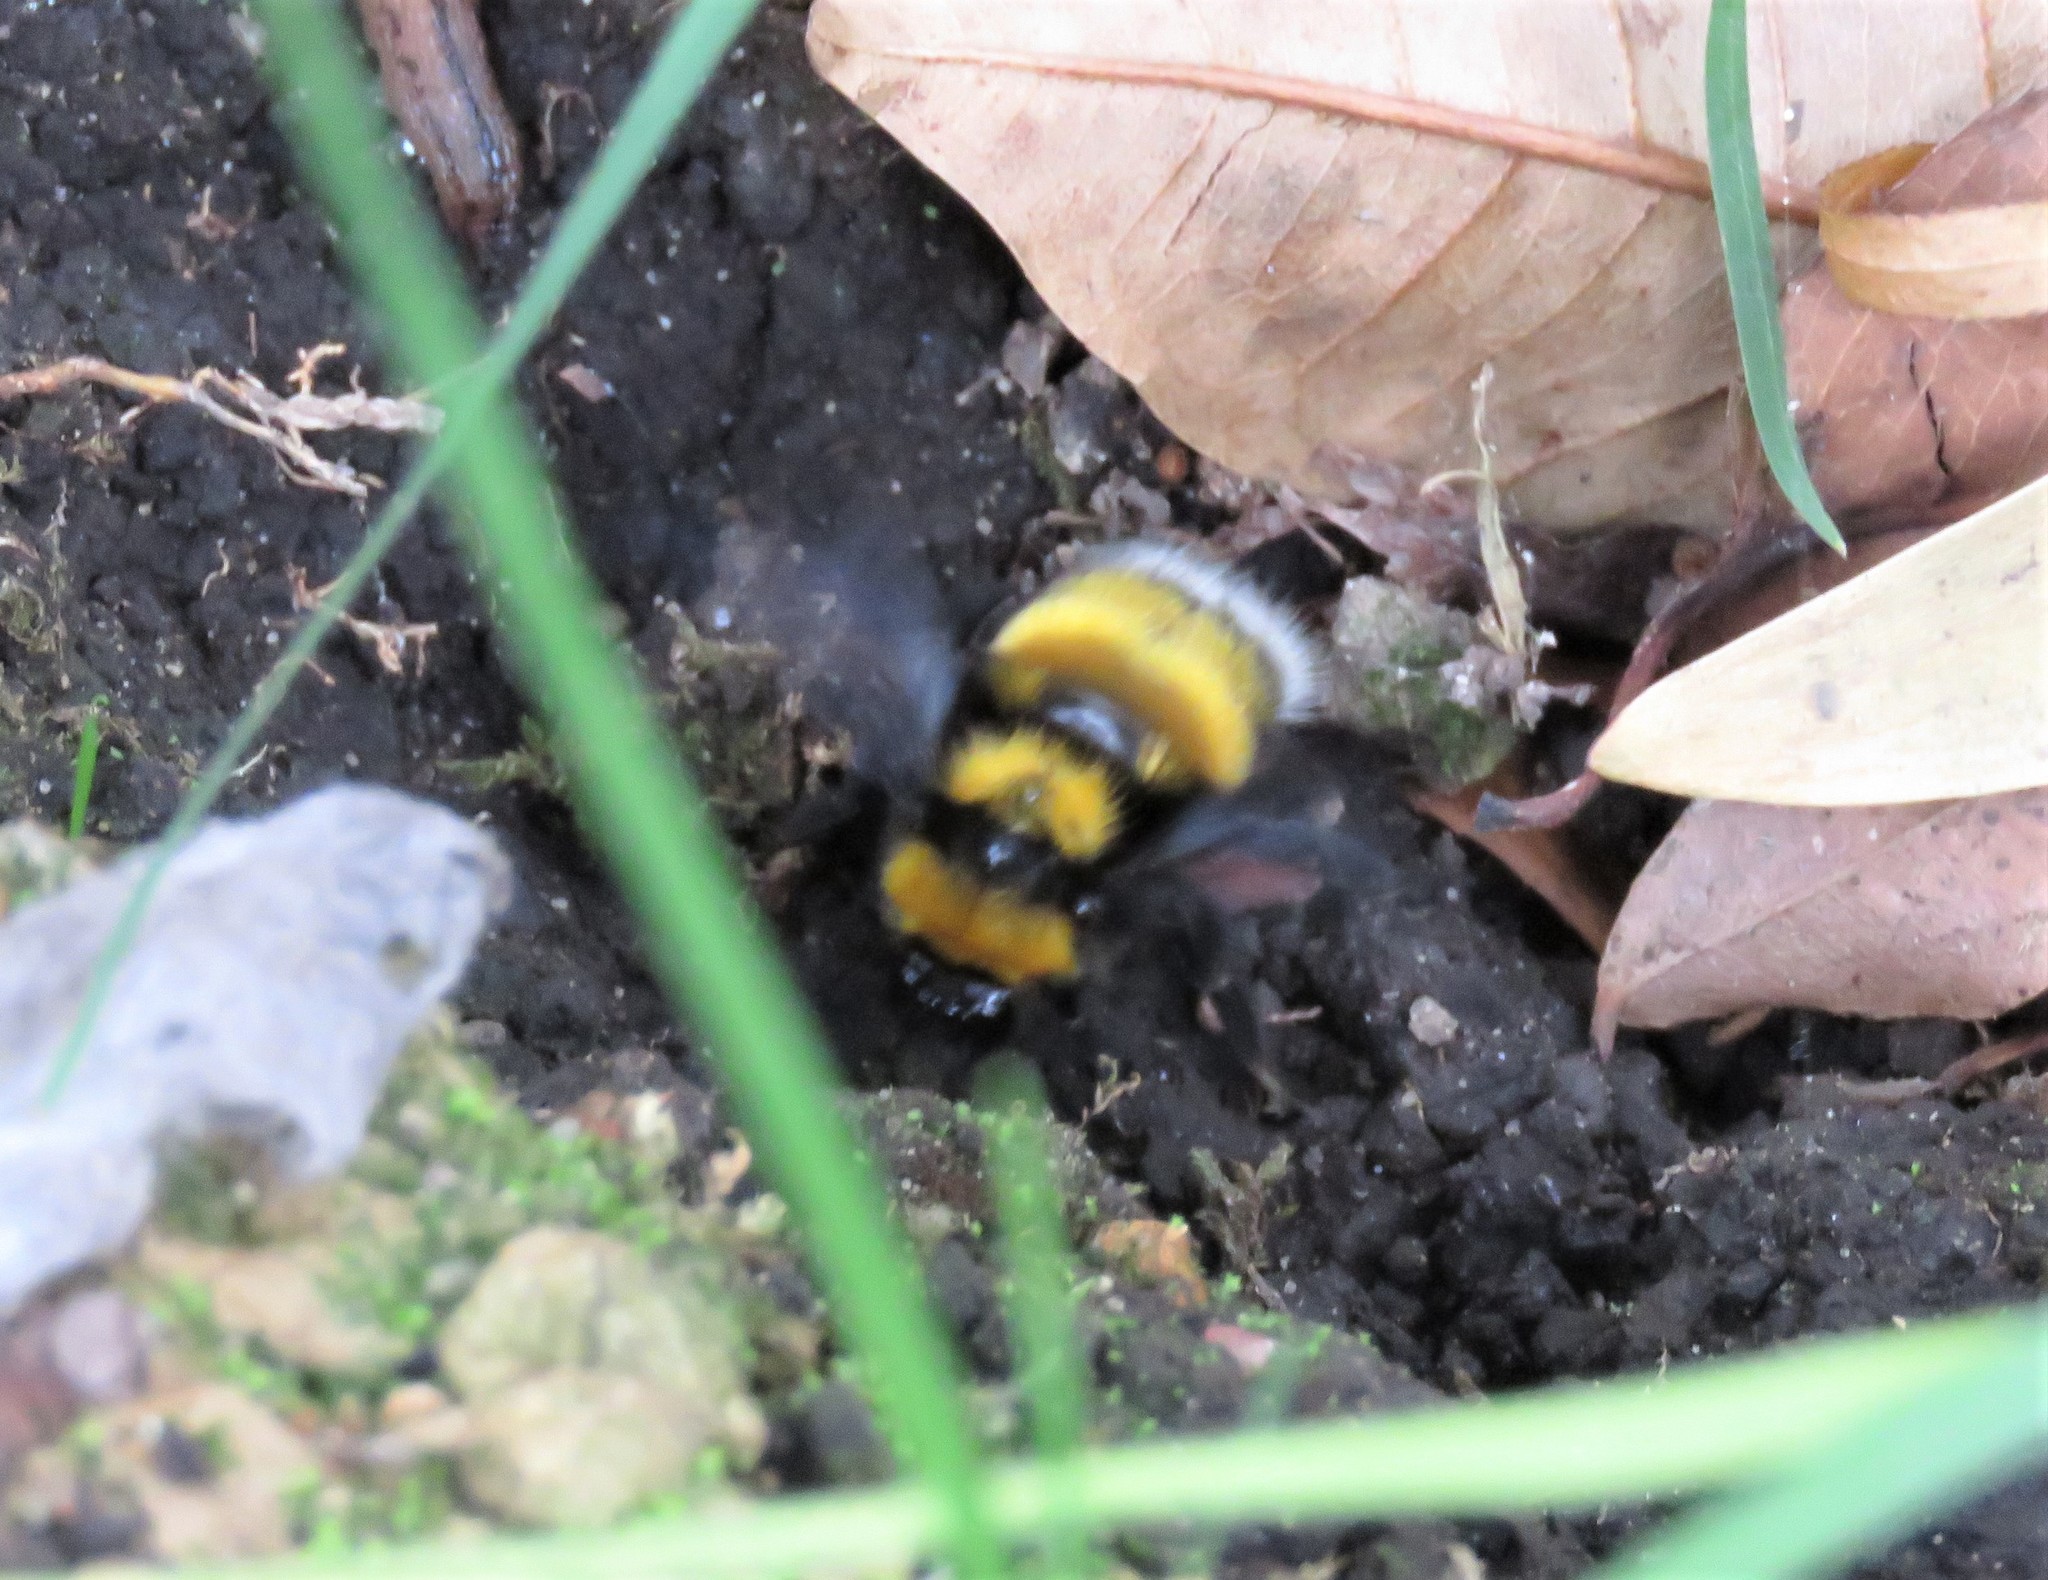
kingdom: Animalia
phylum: Arthropoda
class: Insecta
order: Hymenoptera
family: Apidae
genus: Bombus
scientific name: Bombus hortulanus
